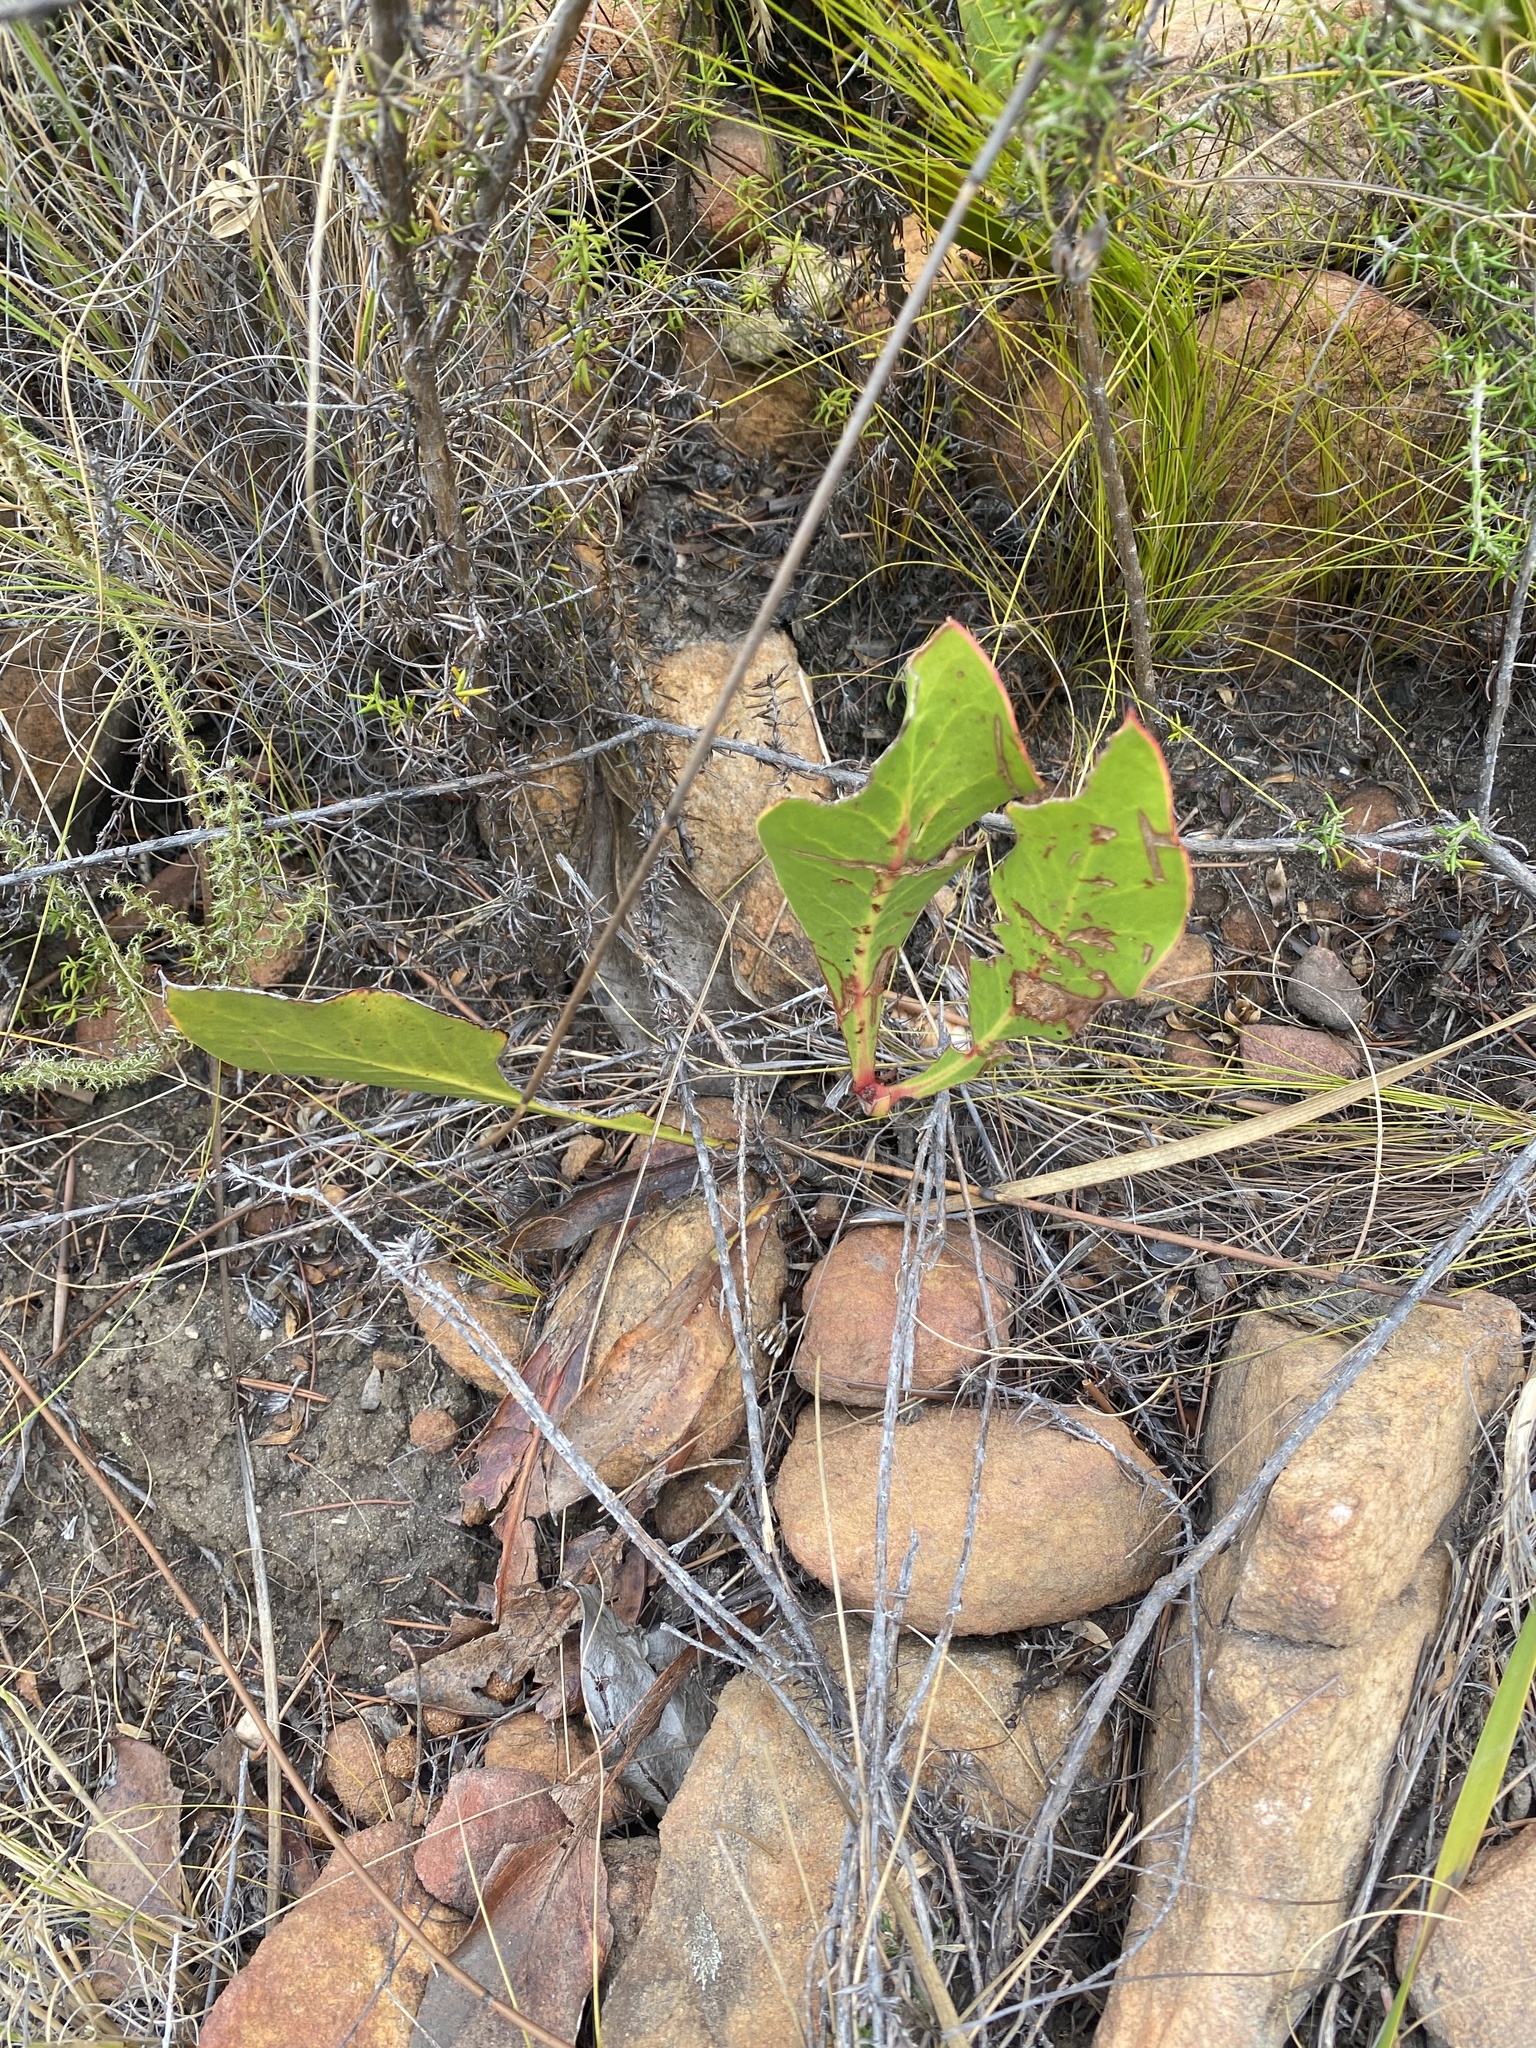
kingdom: Plantae
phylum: Tracheophyta
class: Magnoliopsida
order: Proteales
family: Proteaceae
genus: Protea
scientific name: Protea acaulos
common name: Common ground sugarbush
